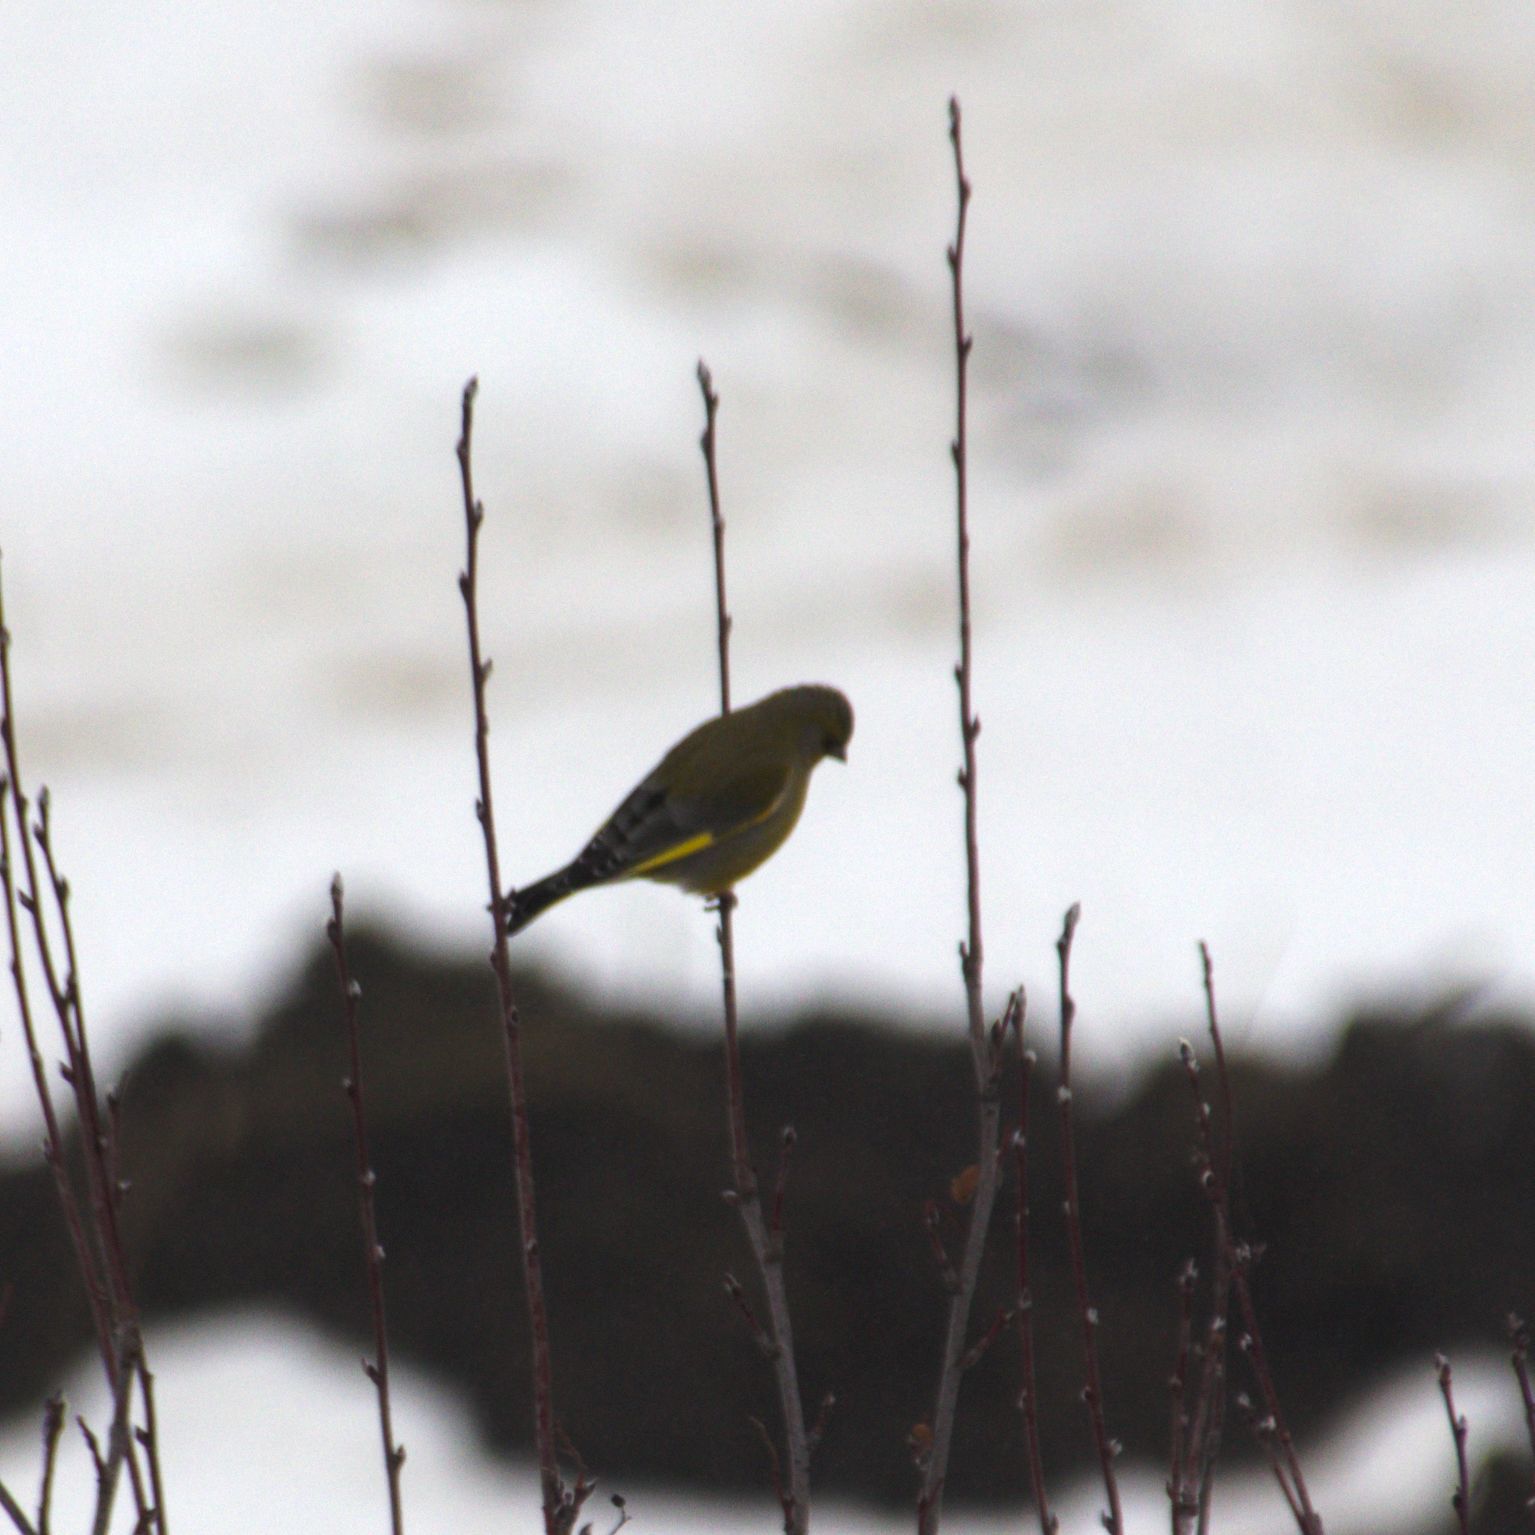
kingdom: Plantae
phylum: Tracheophyta
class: Liliopsida
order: Poales
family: Poaceae
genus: Chloris
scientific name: Chloris chloris
